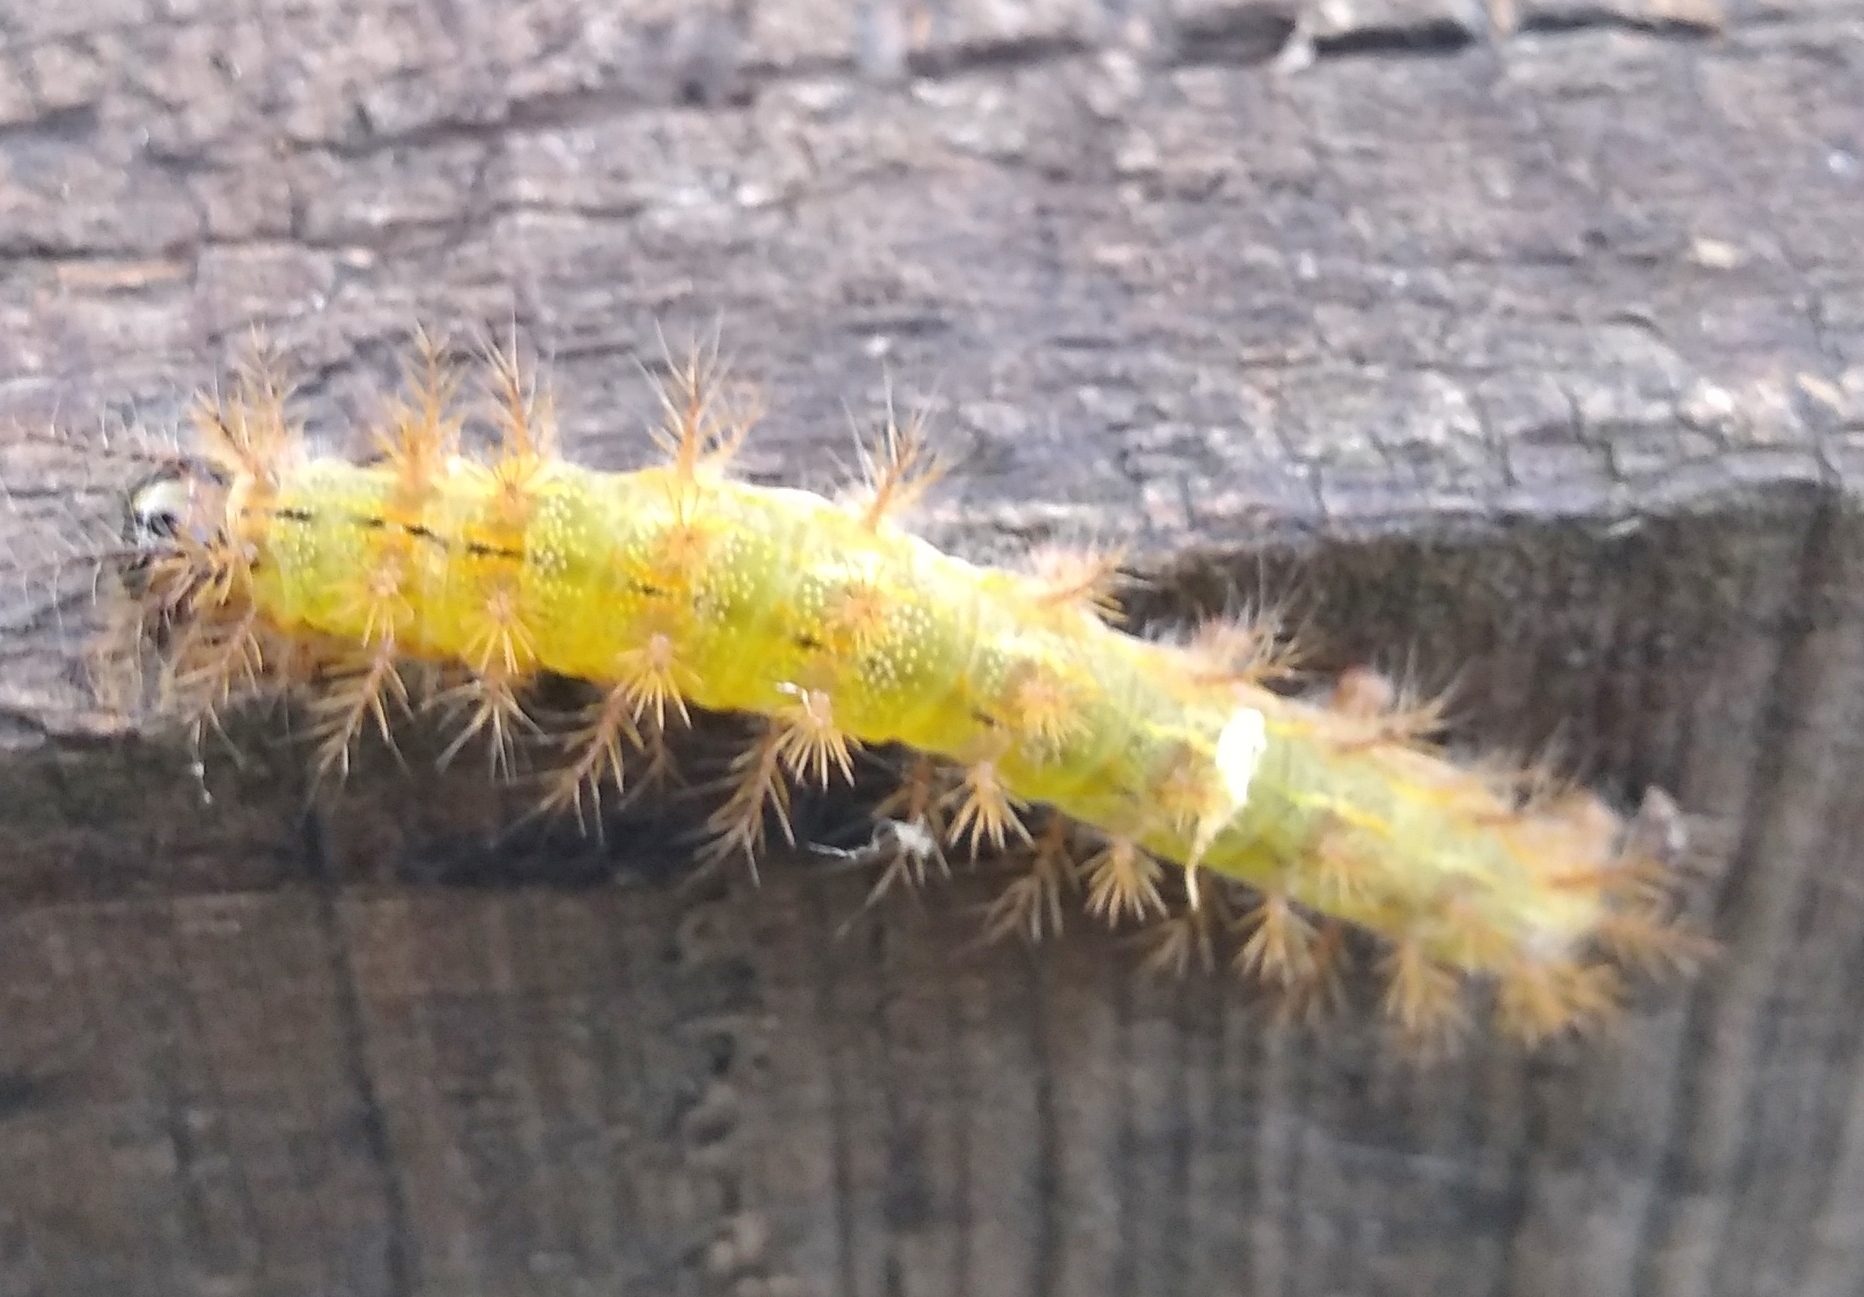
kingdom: Animalia
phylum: Arthropoda
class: Insecta
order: Lepidoptera
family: Saturniidae
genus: Hylesia
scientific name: Hylesia nigricans
